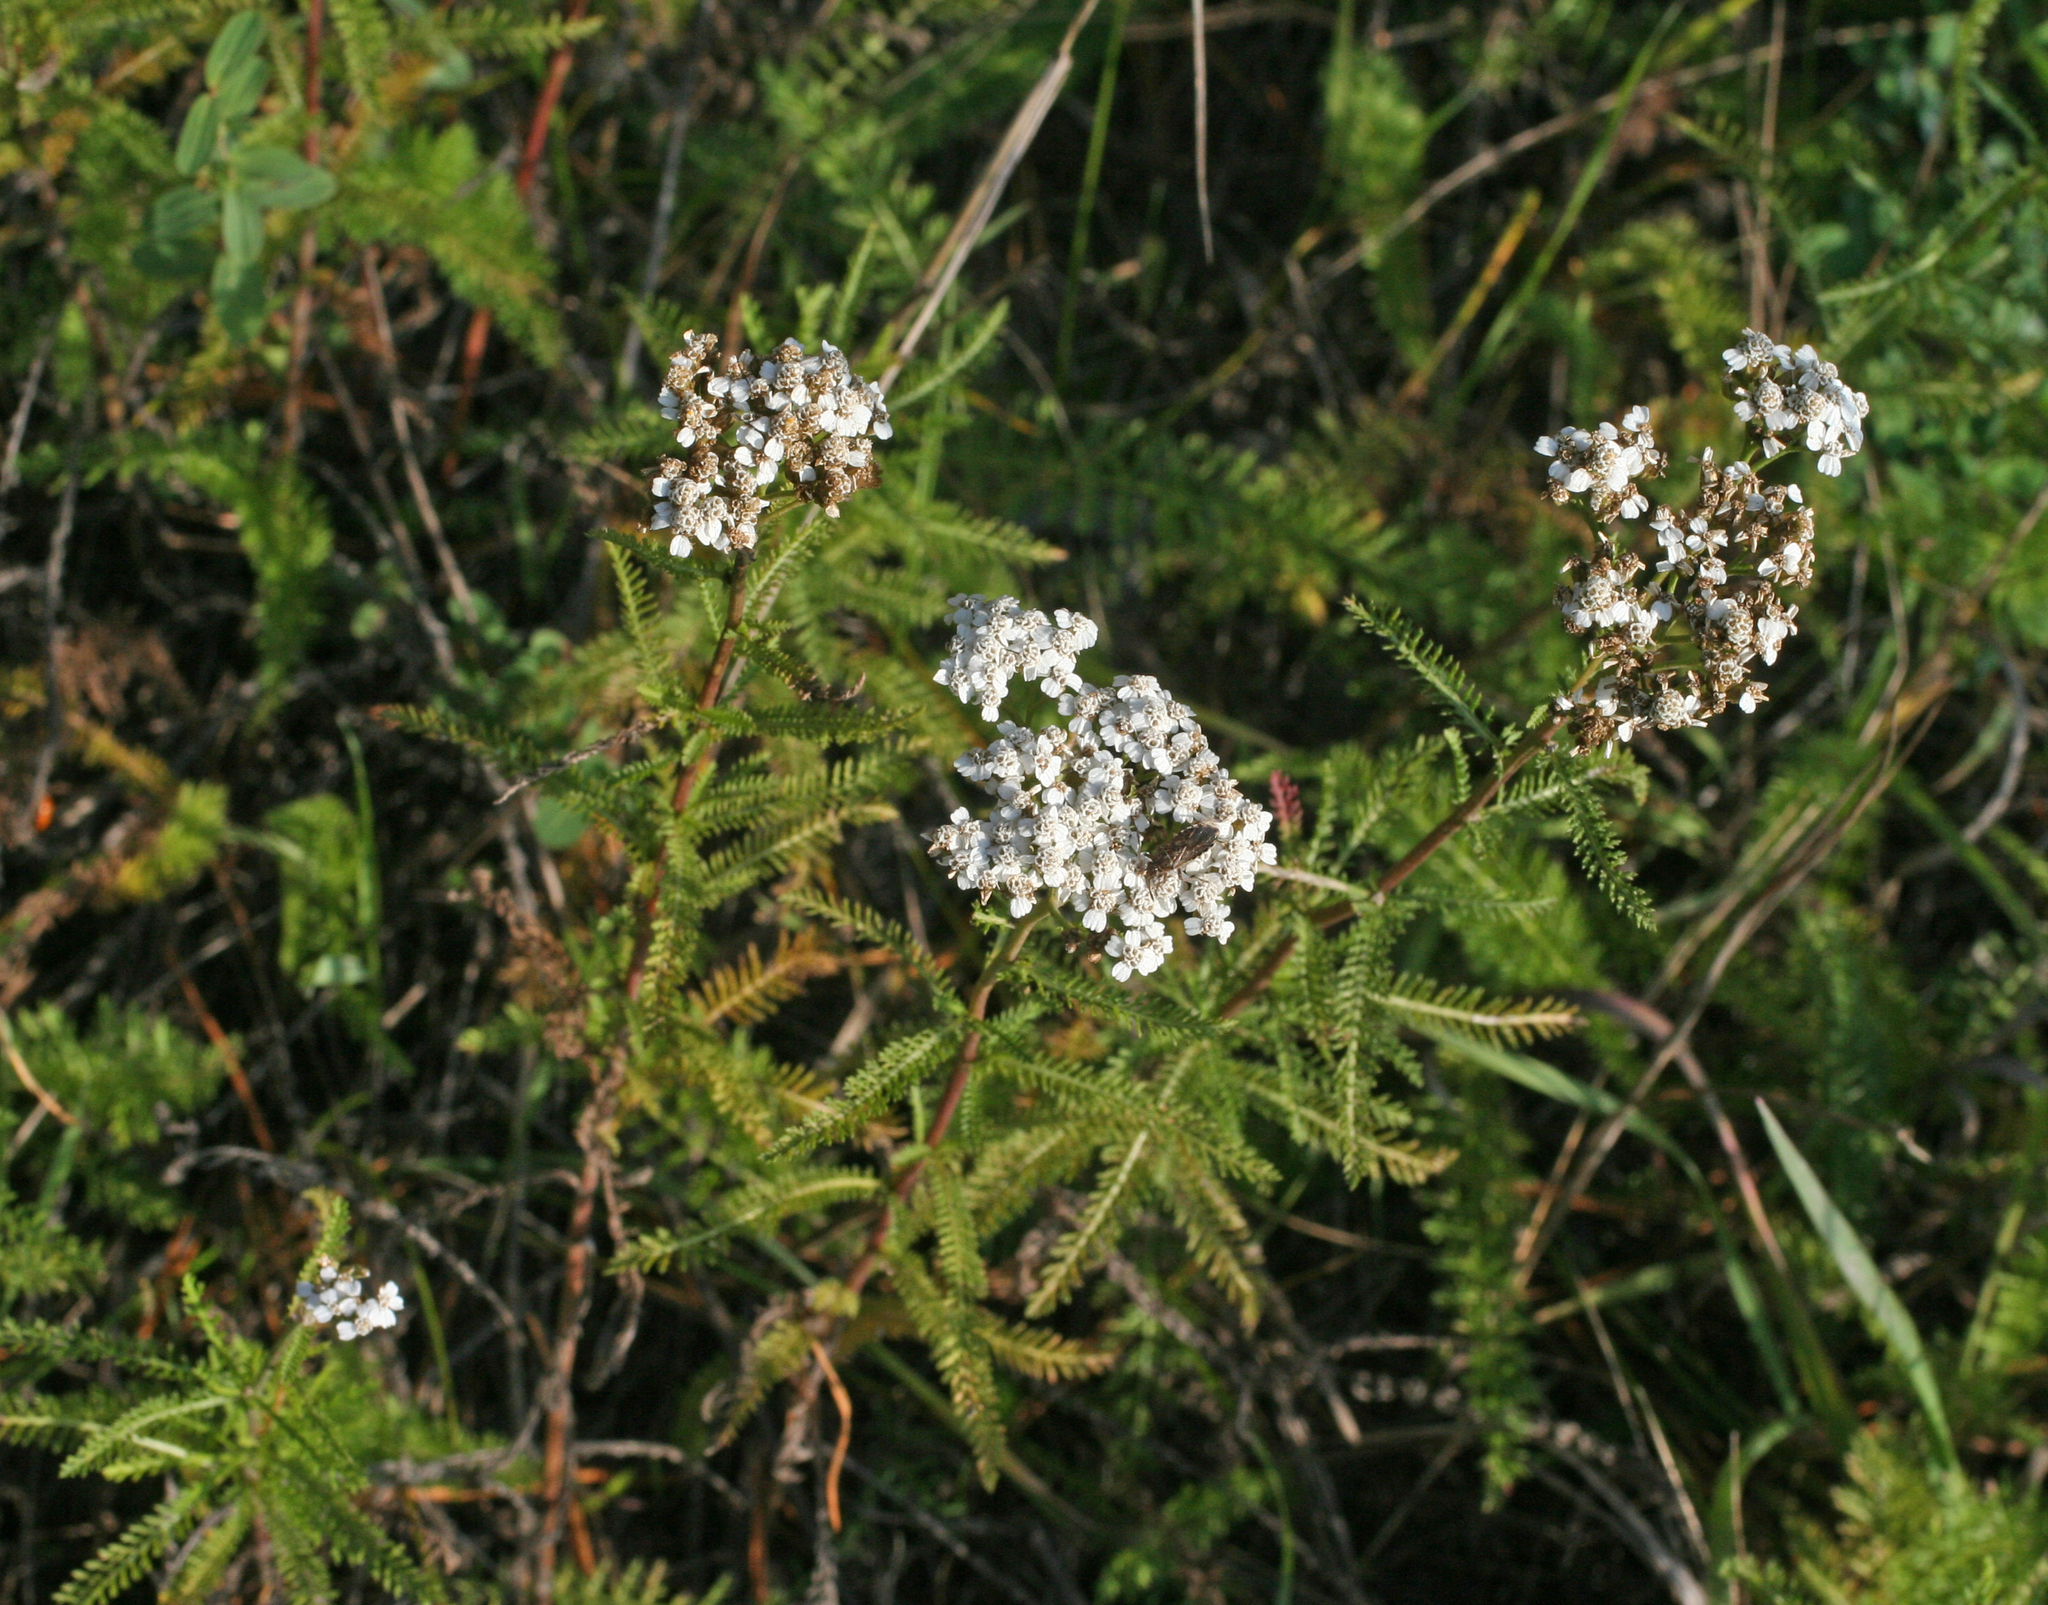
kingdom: Plantae
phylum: Tracheophyta
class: Magnoliopsida
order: Asterales
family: Asteraceae
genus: Achillea
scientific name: Achillea millefolium
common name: Yarrow
